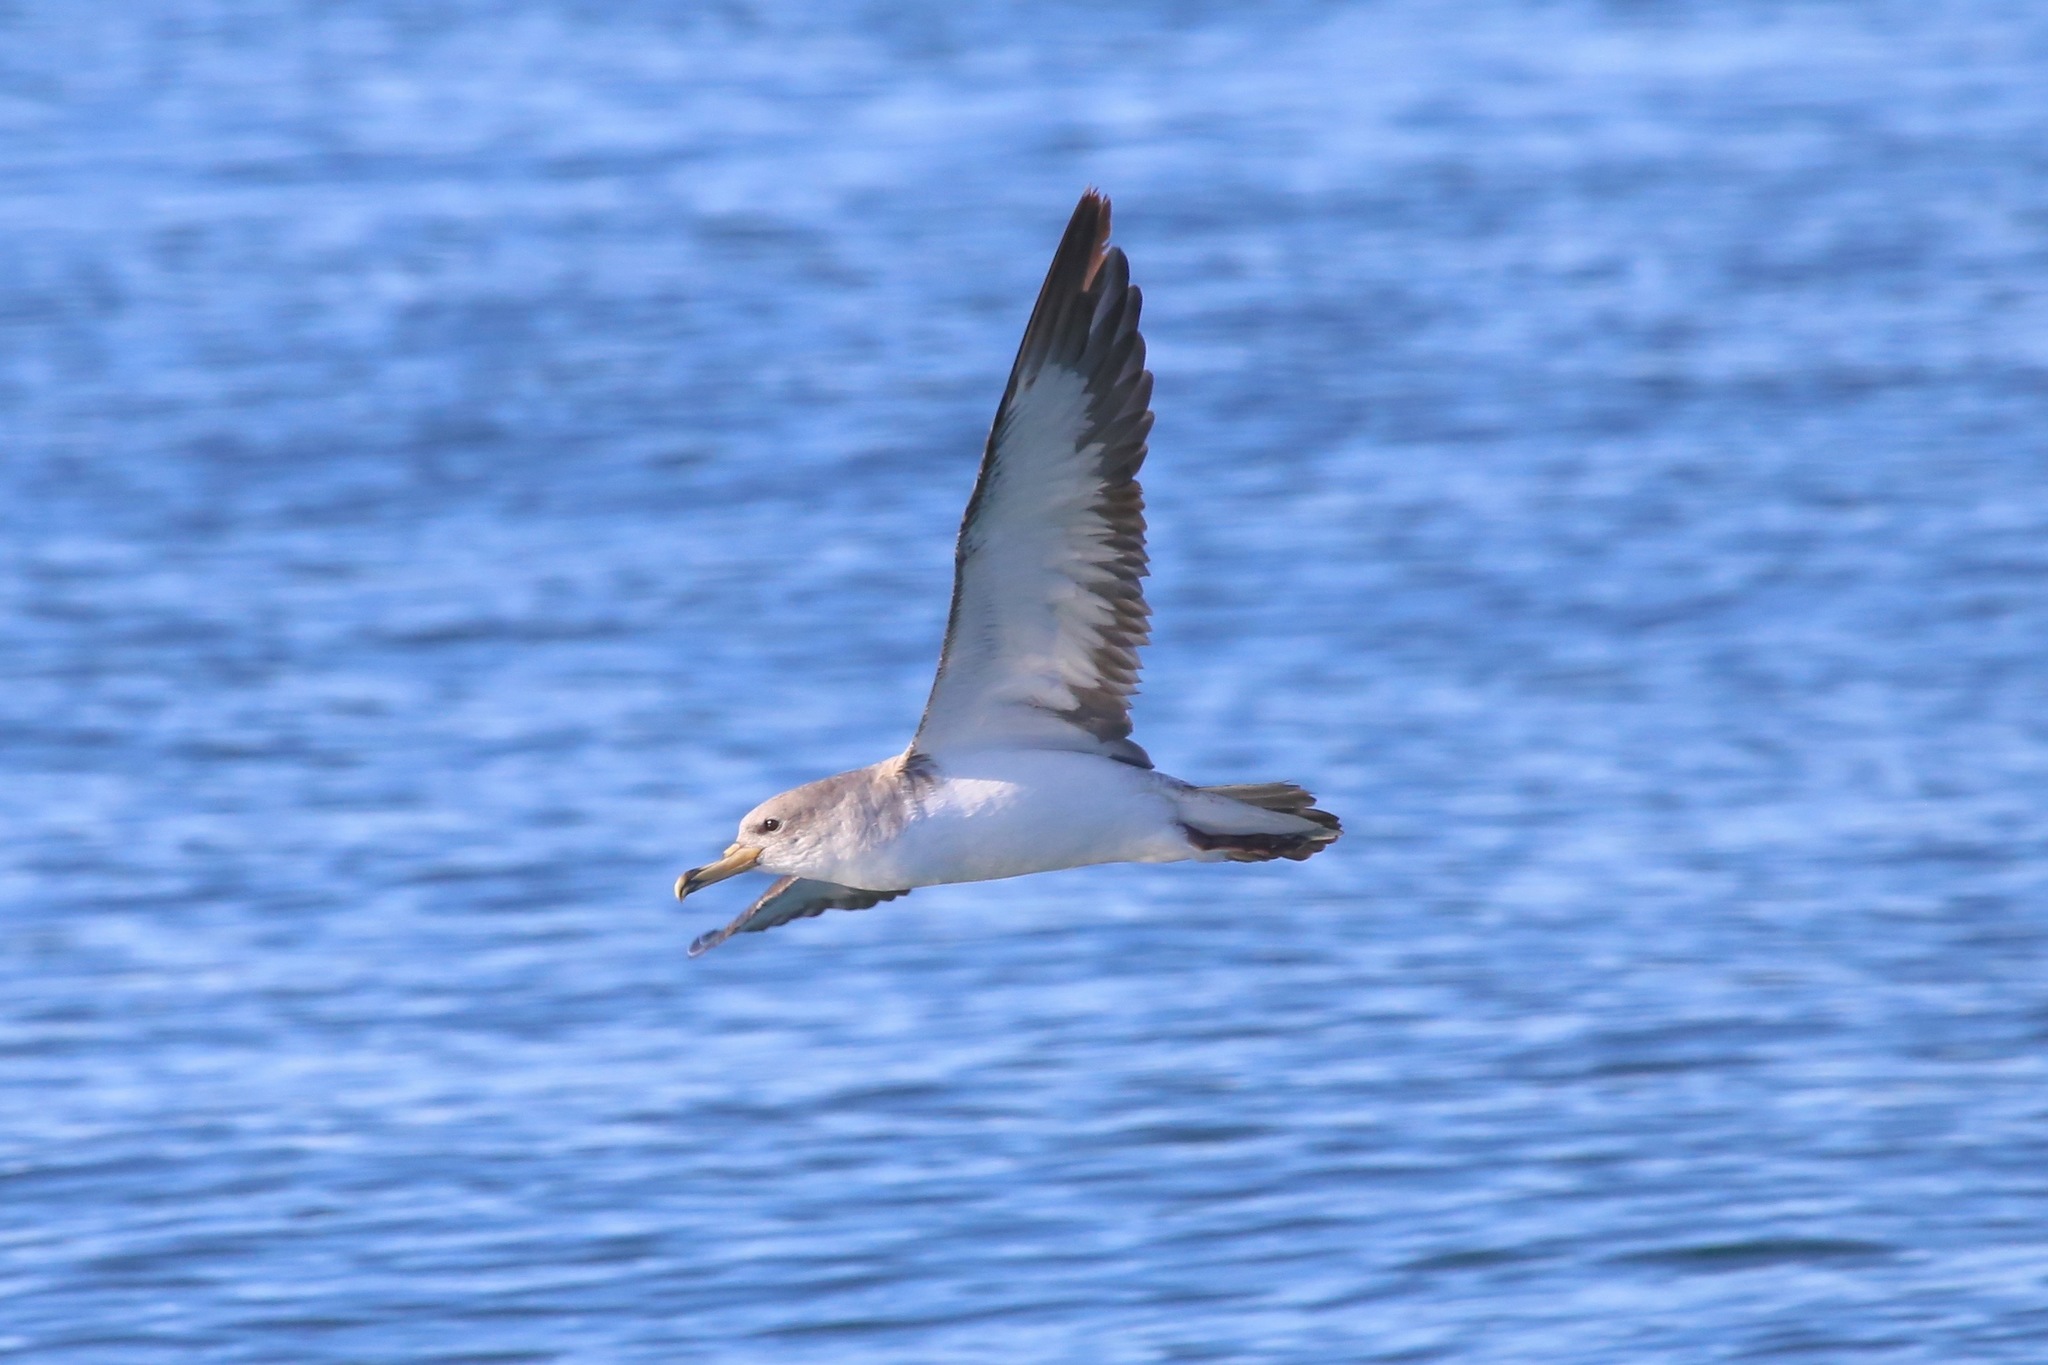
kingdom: Animalia
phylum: Chordata
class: Aves
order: Procellariiformes
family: Procellariidae
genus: Calonectris
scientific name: Calonectris diomedea
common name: Cory's shearwater
